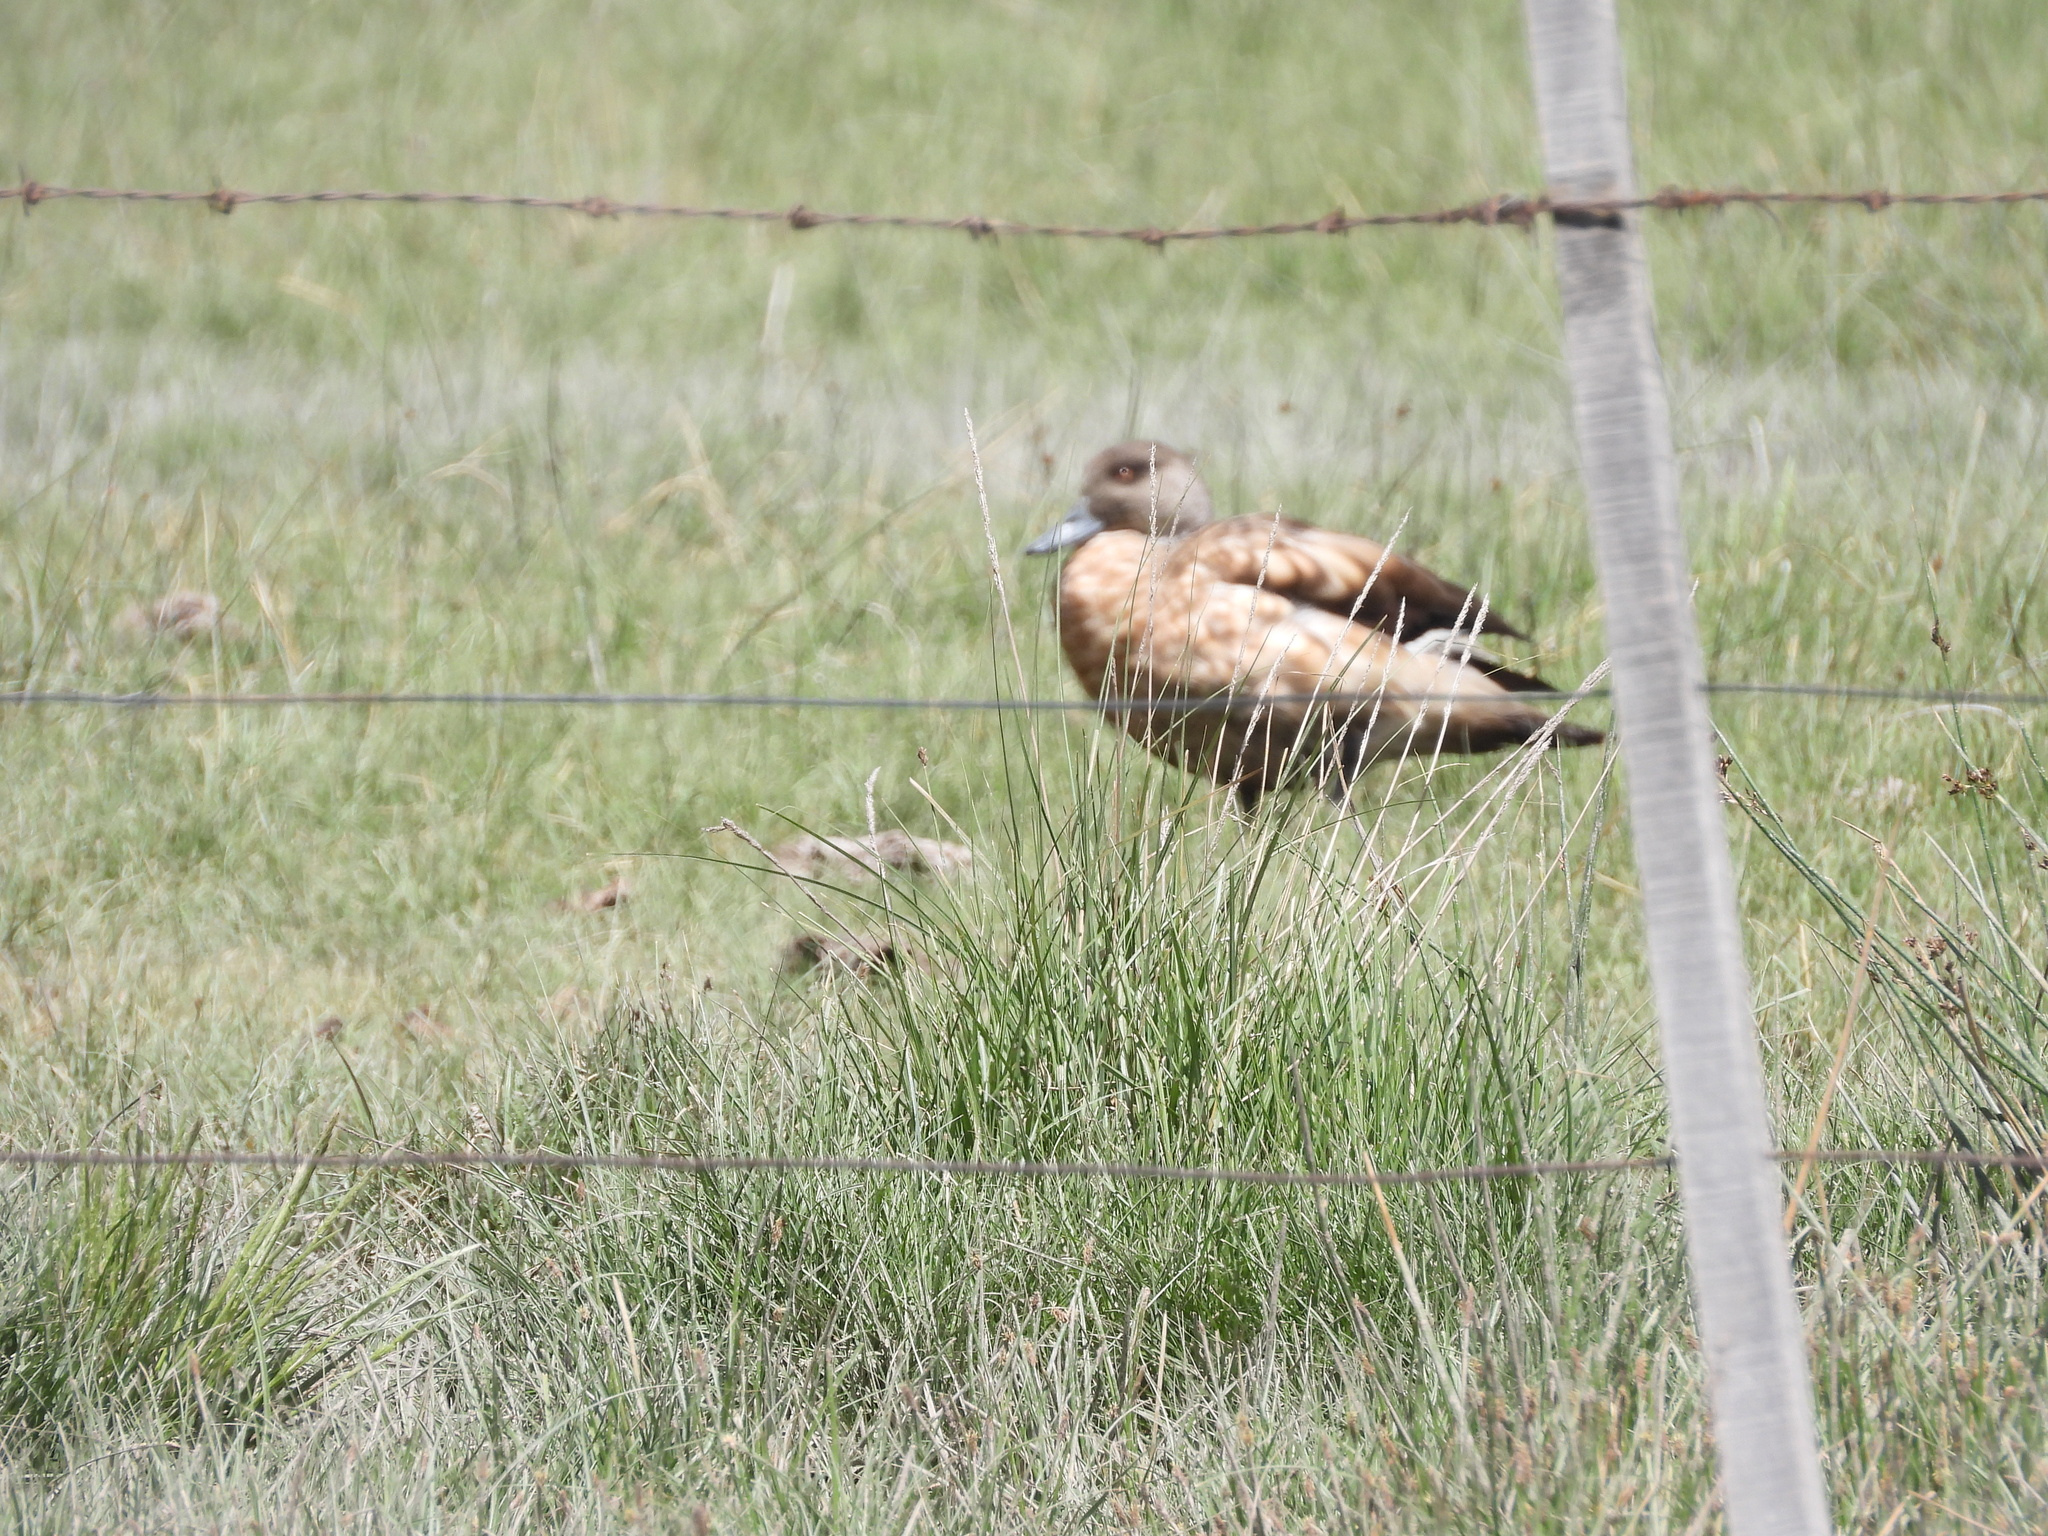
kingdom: Animalia
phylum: Chordata
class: Aves
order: Anseriformes
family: Anatidae
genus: Lophonetta
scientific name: Lophonetta specularioides
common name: Crested duck
